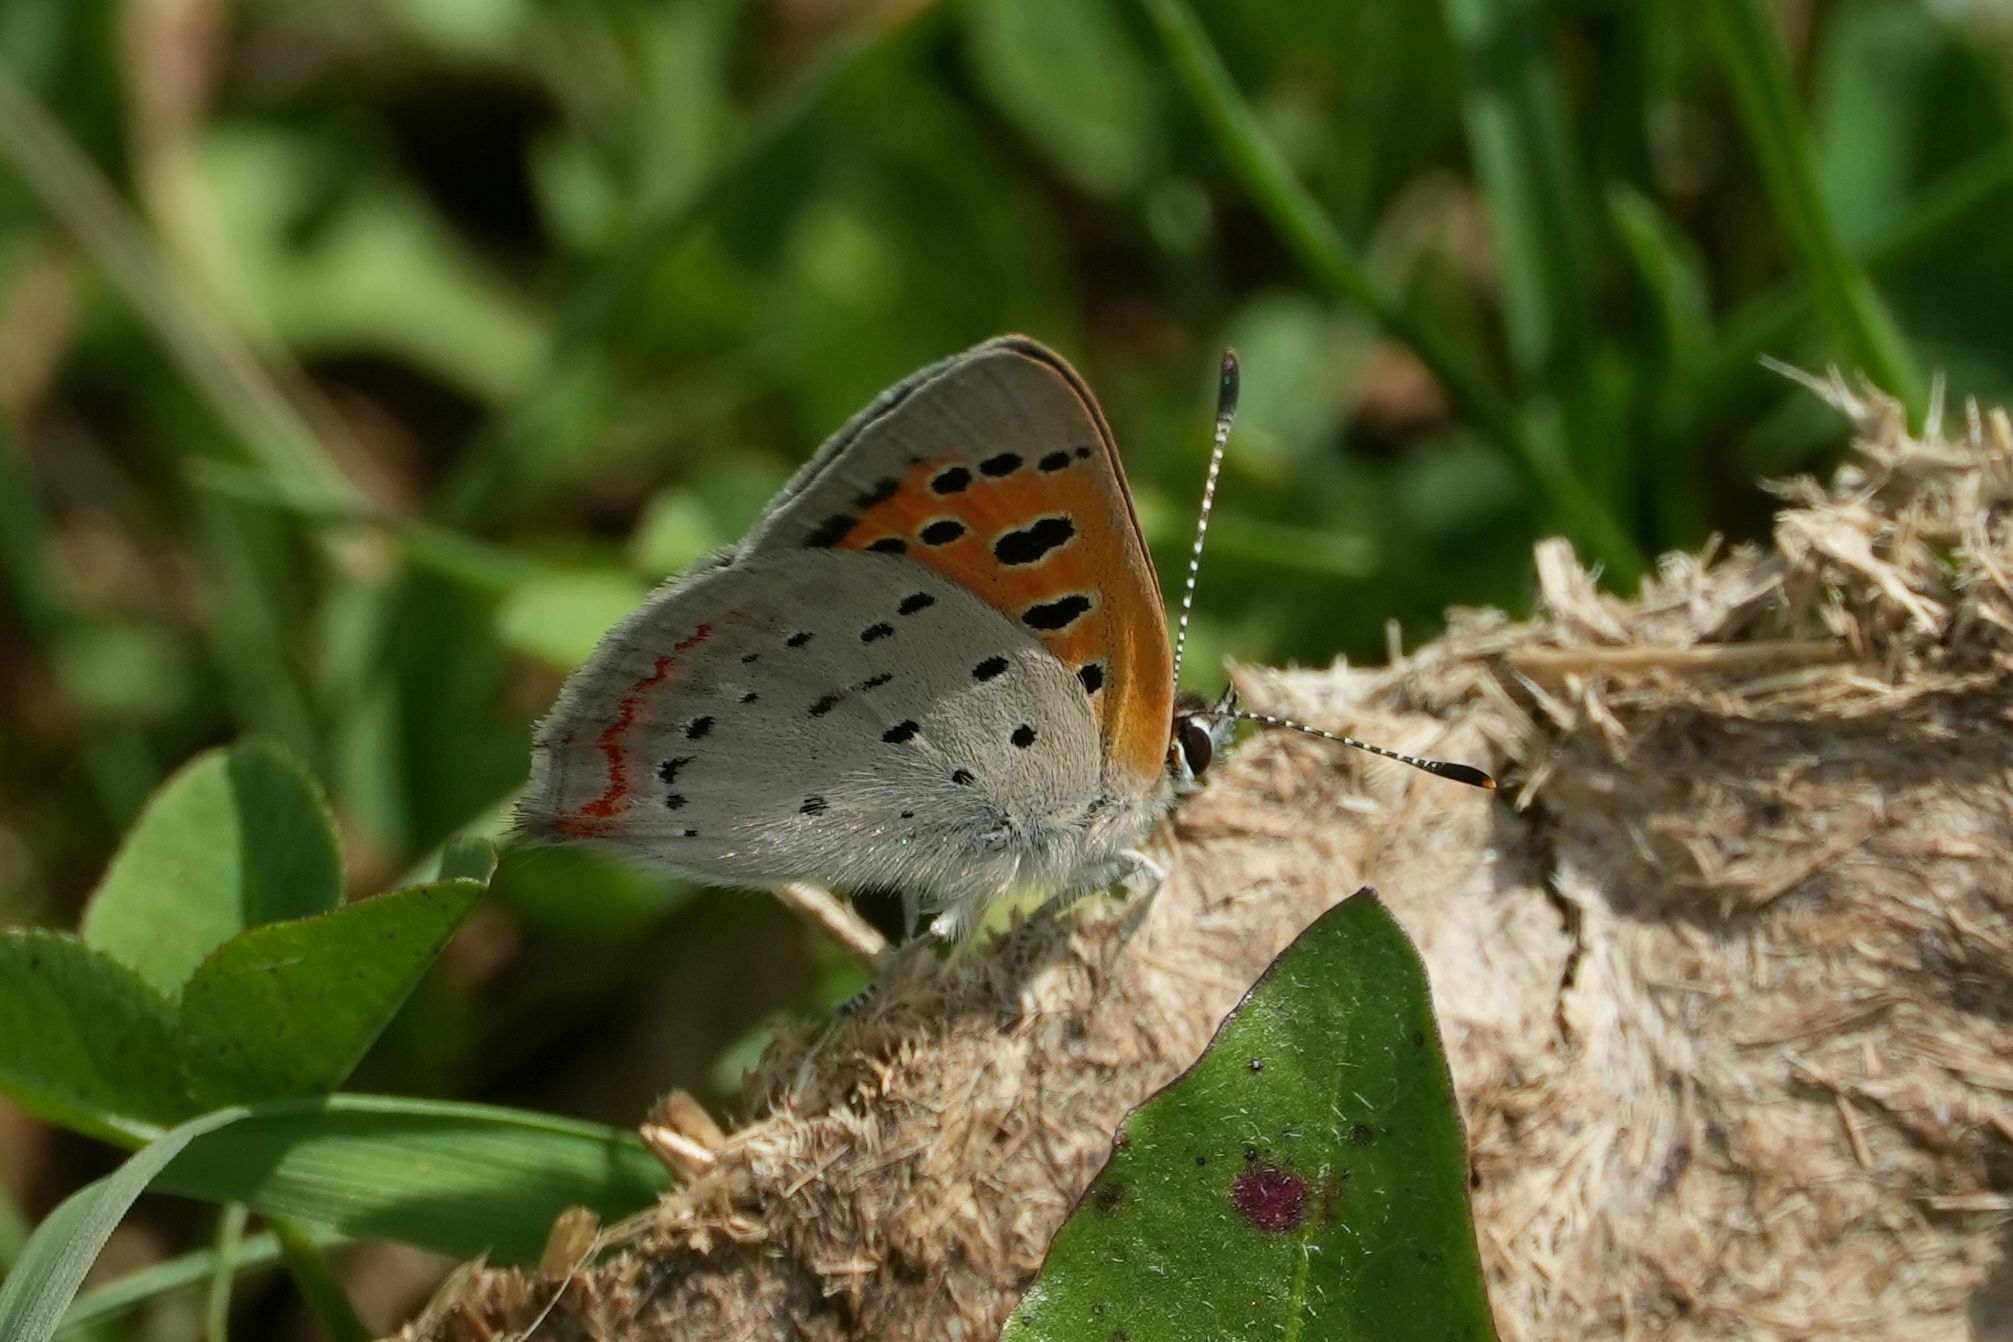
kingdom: Animalia
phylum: Arthropoda
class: Insecta
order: Lepidoptera
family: Lycaenidae
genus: Lycaena
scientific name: Lycaena hypophlaeas
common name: American copper
